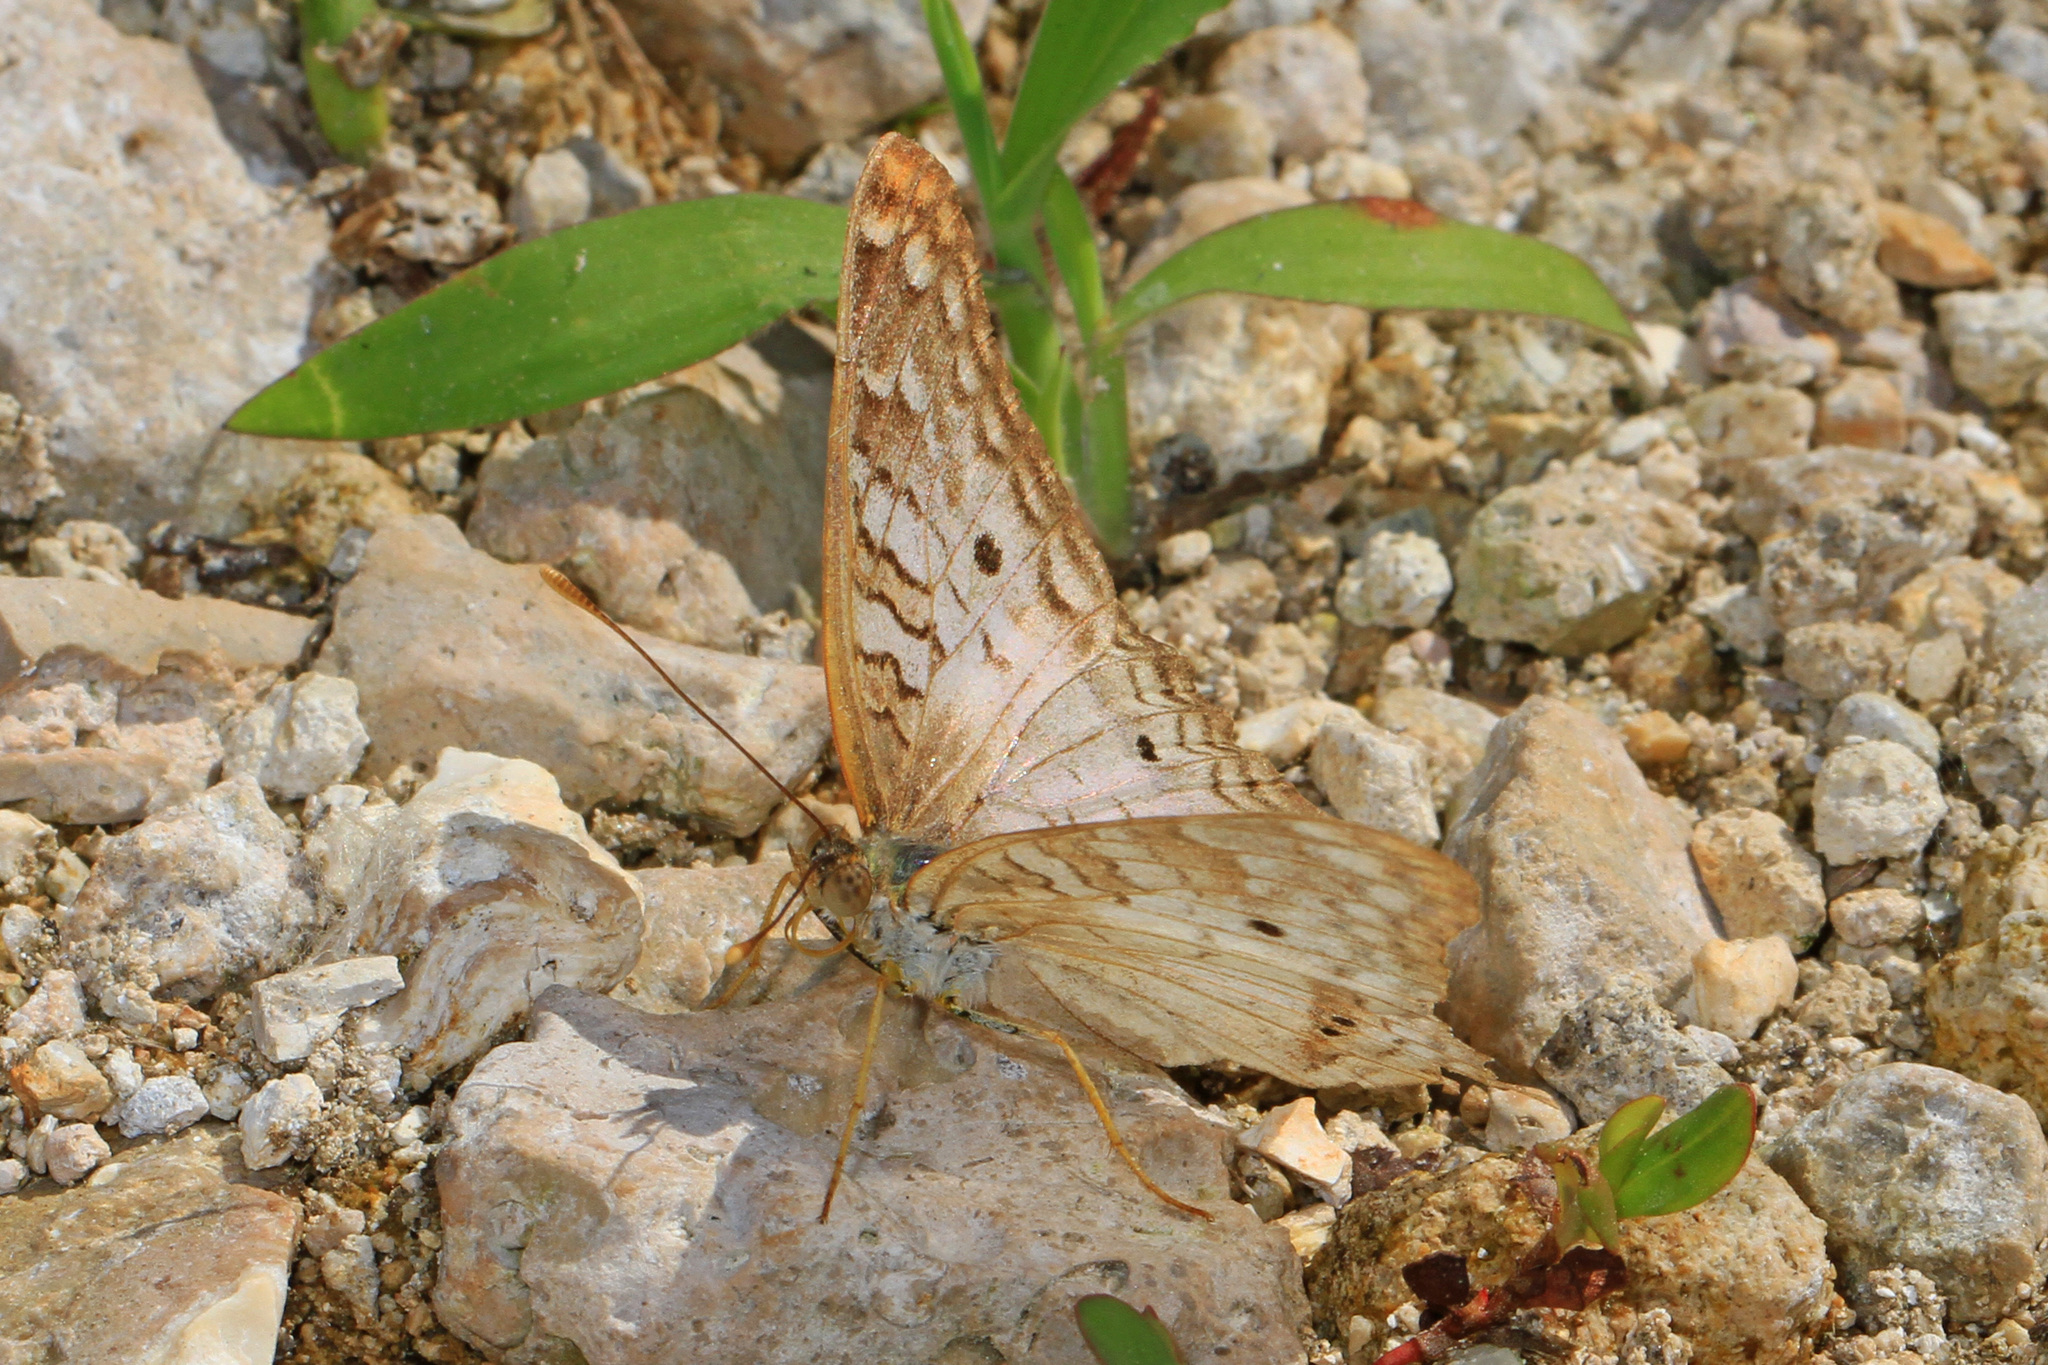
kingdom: Animalia
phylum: Arthropoda
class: Insecta
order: Lepidoptera
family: Nymphalidae
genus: Anartia
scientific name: Anartia jatrophae
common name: White peacock
